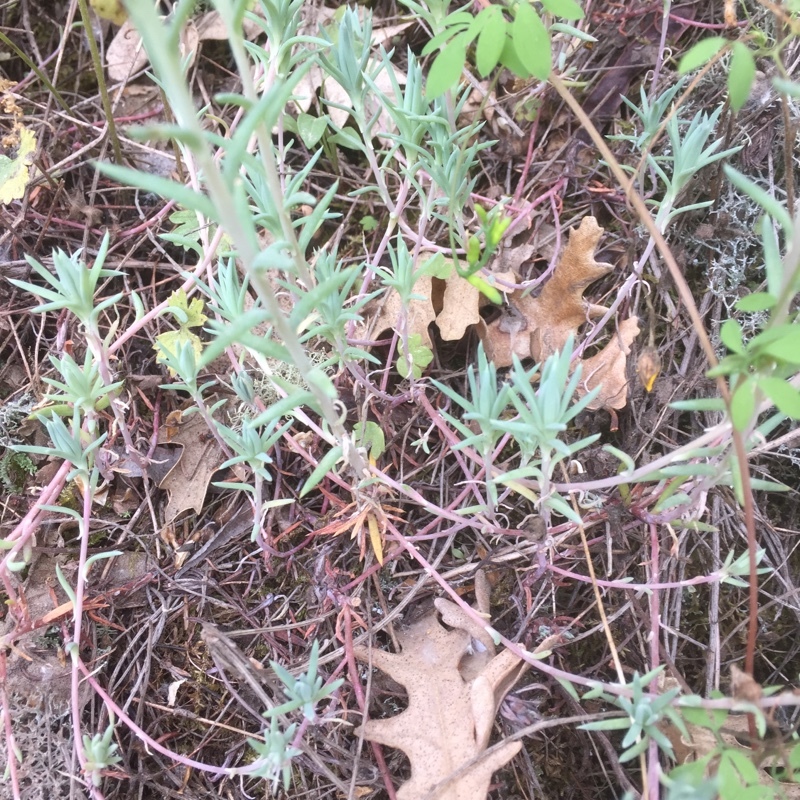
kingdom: Plantae
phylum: Tracheophyta
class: Magnoliopsida
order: Saxifragales
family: Crassulaceae
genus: Petrosedum
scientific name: Petrosedum pruinatum
